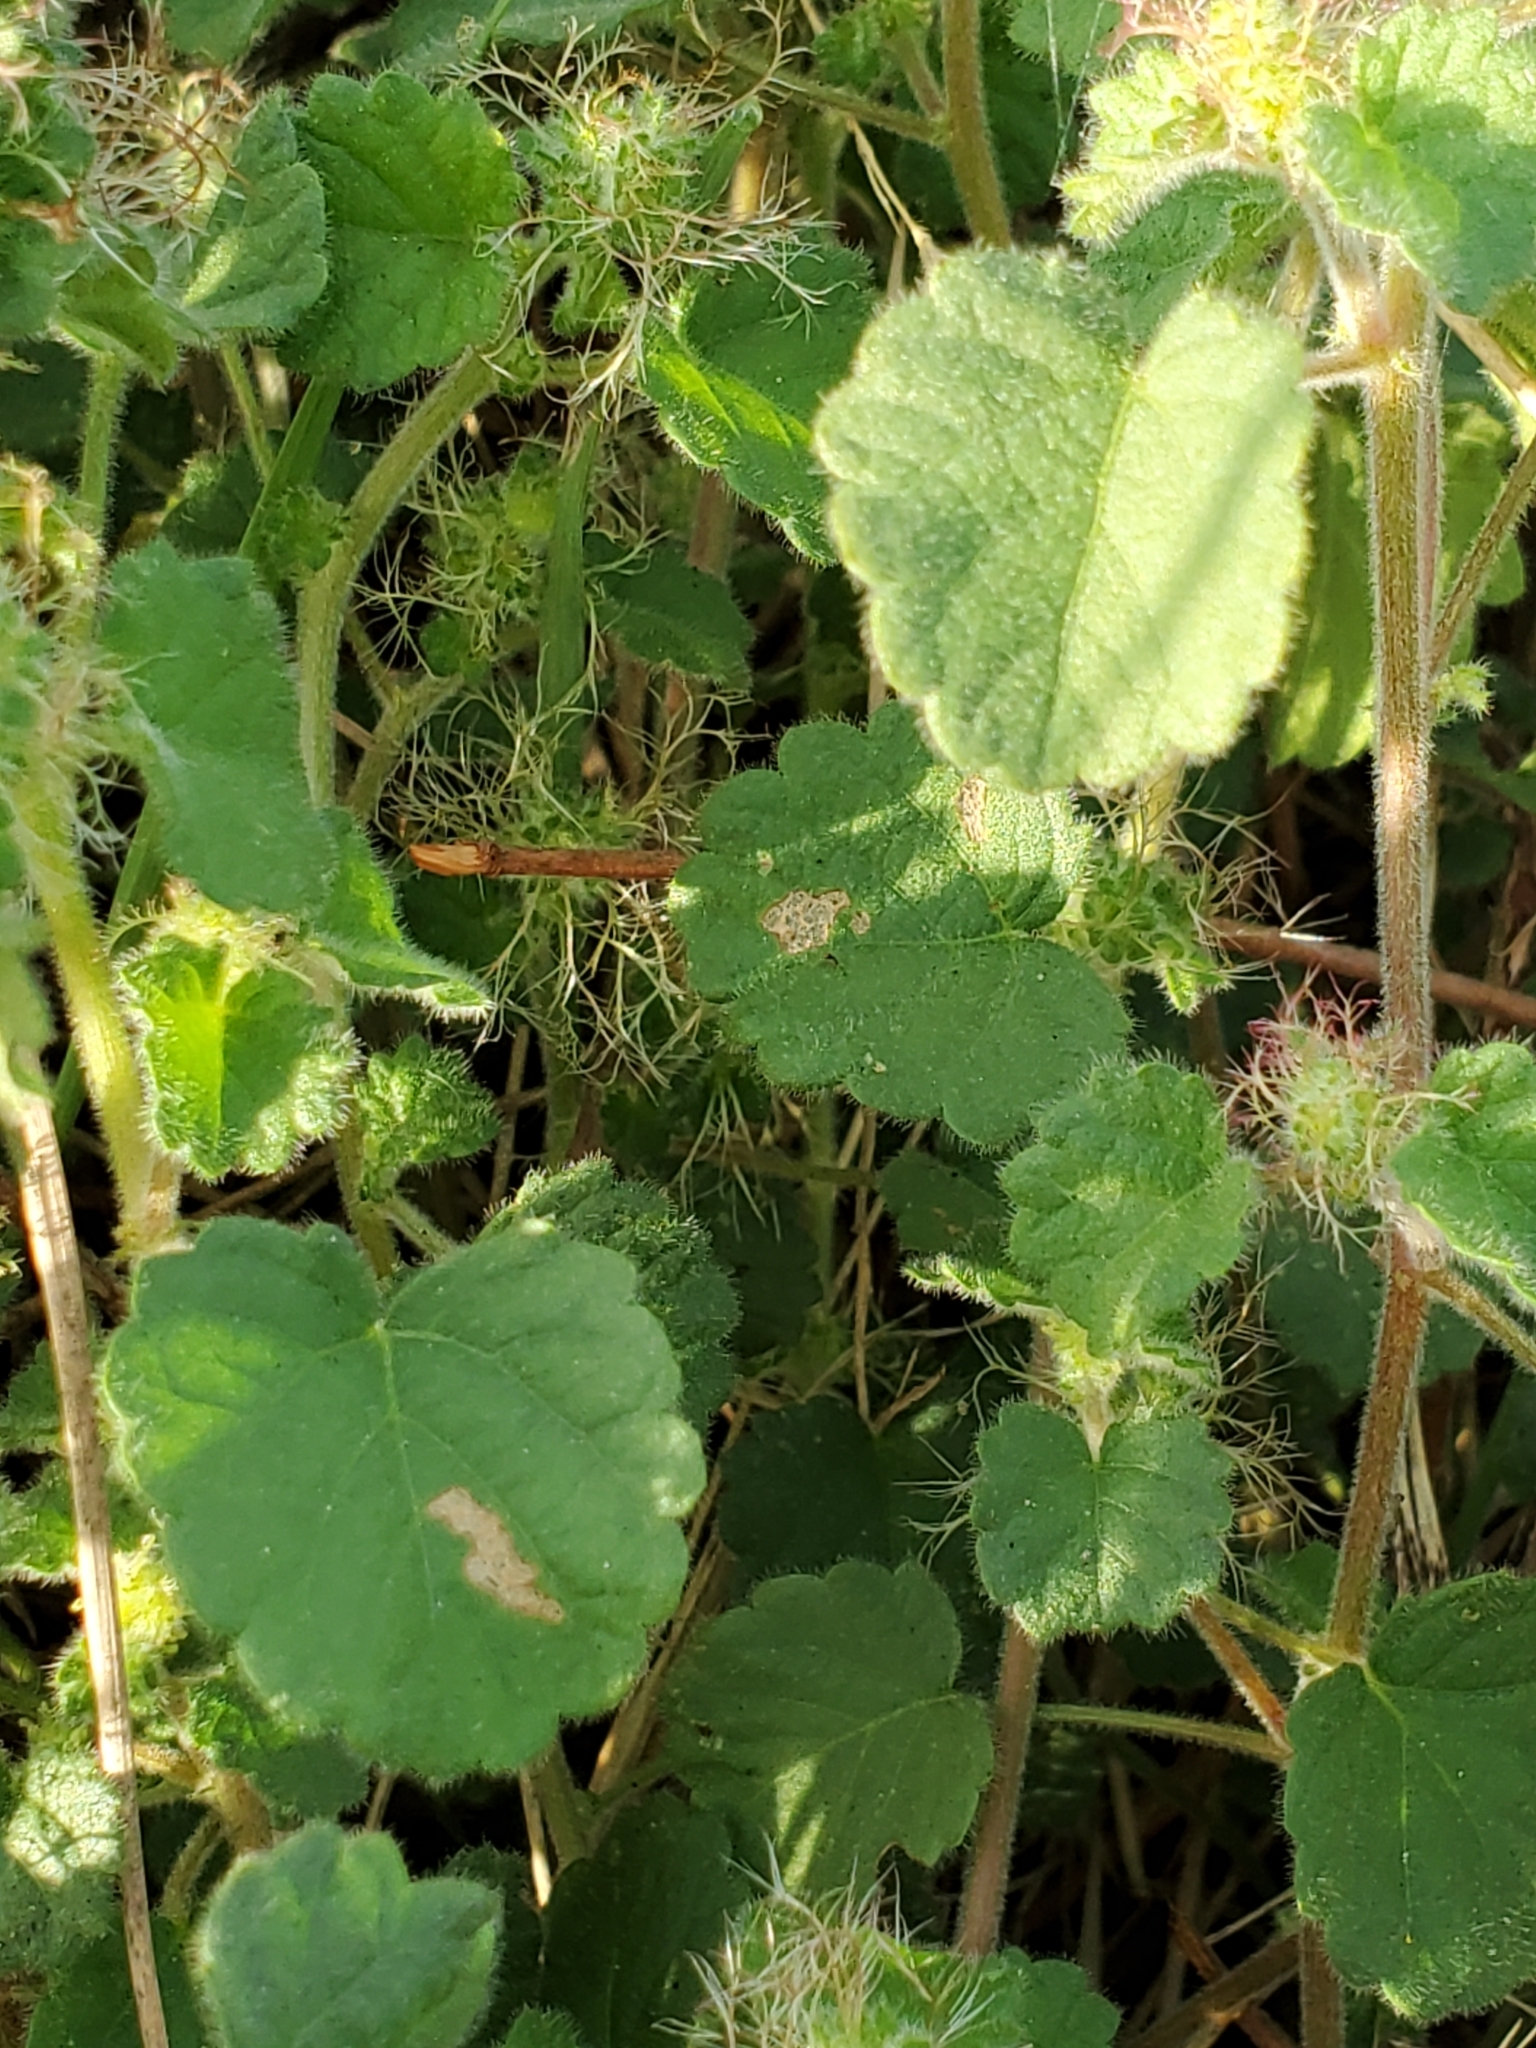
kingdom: Plantae
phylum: Tracheophyta
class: Magnoliopsida
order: Malpighiales
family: Euphorbiaceae
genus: Acalypha
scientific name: Acalypha monostachya
